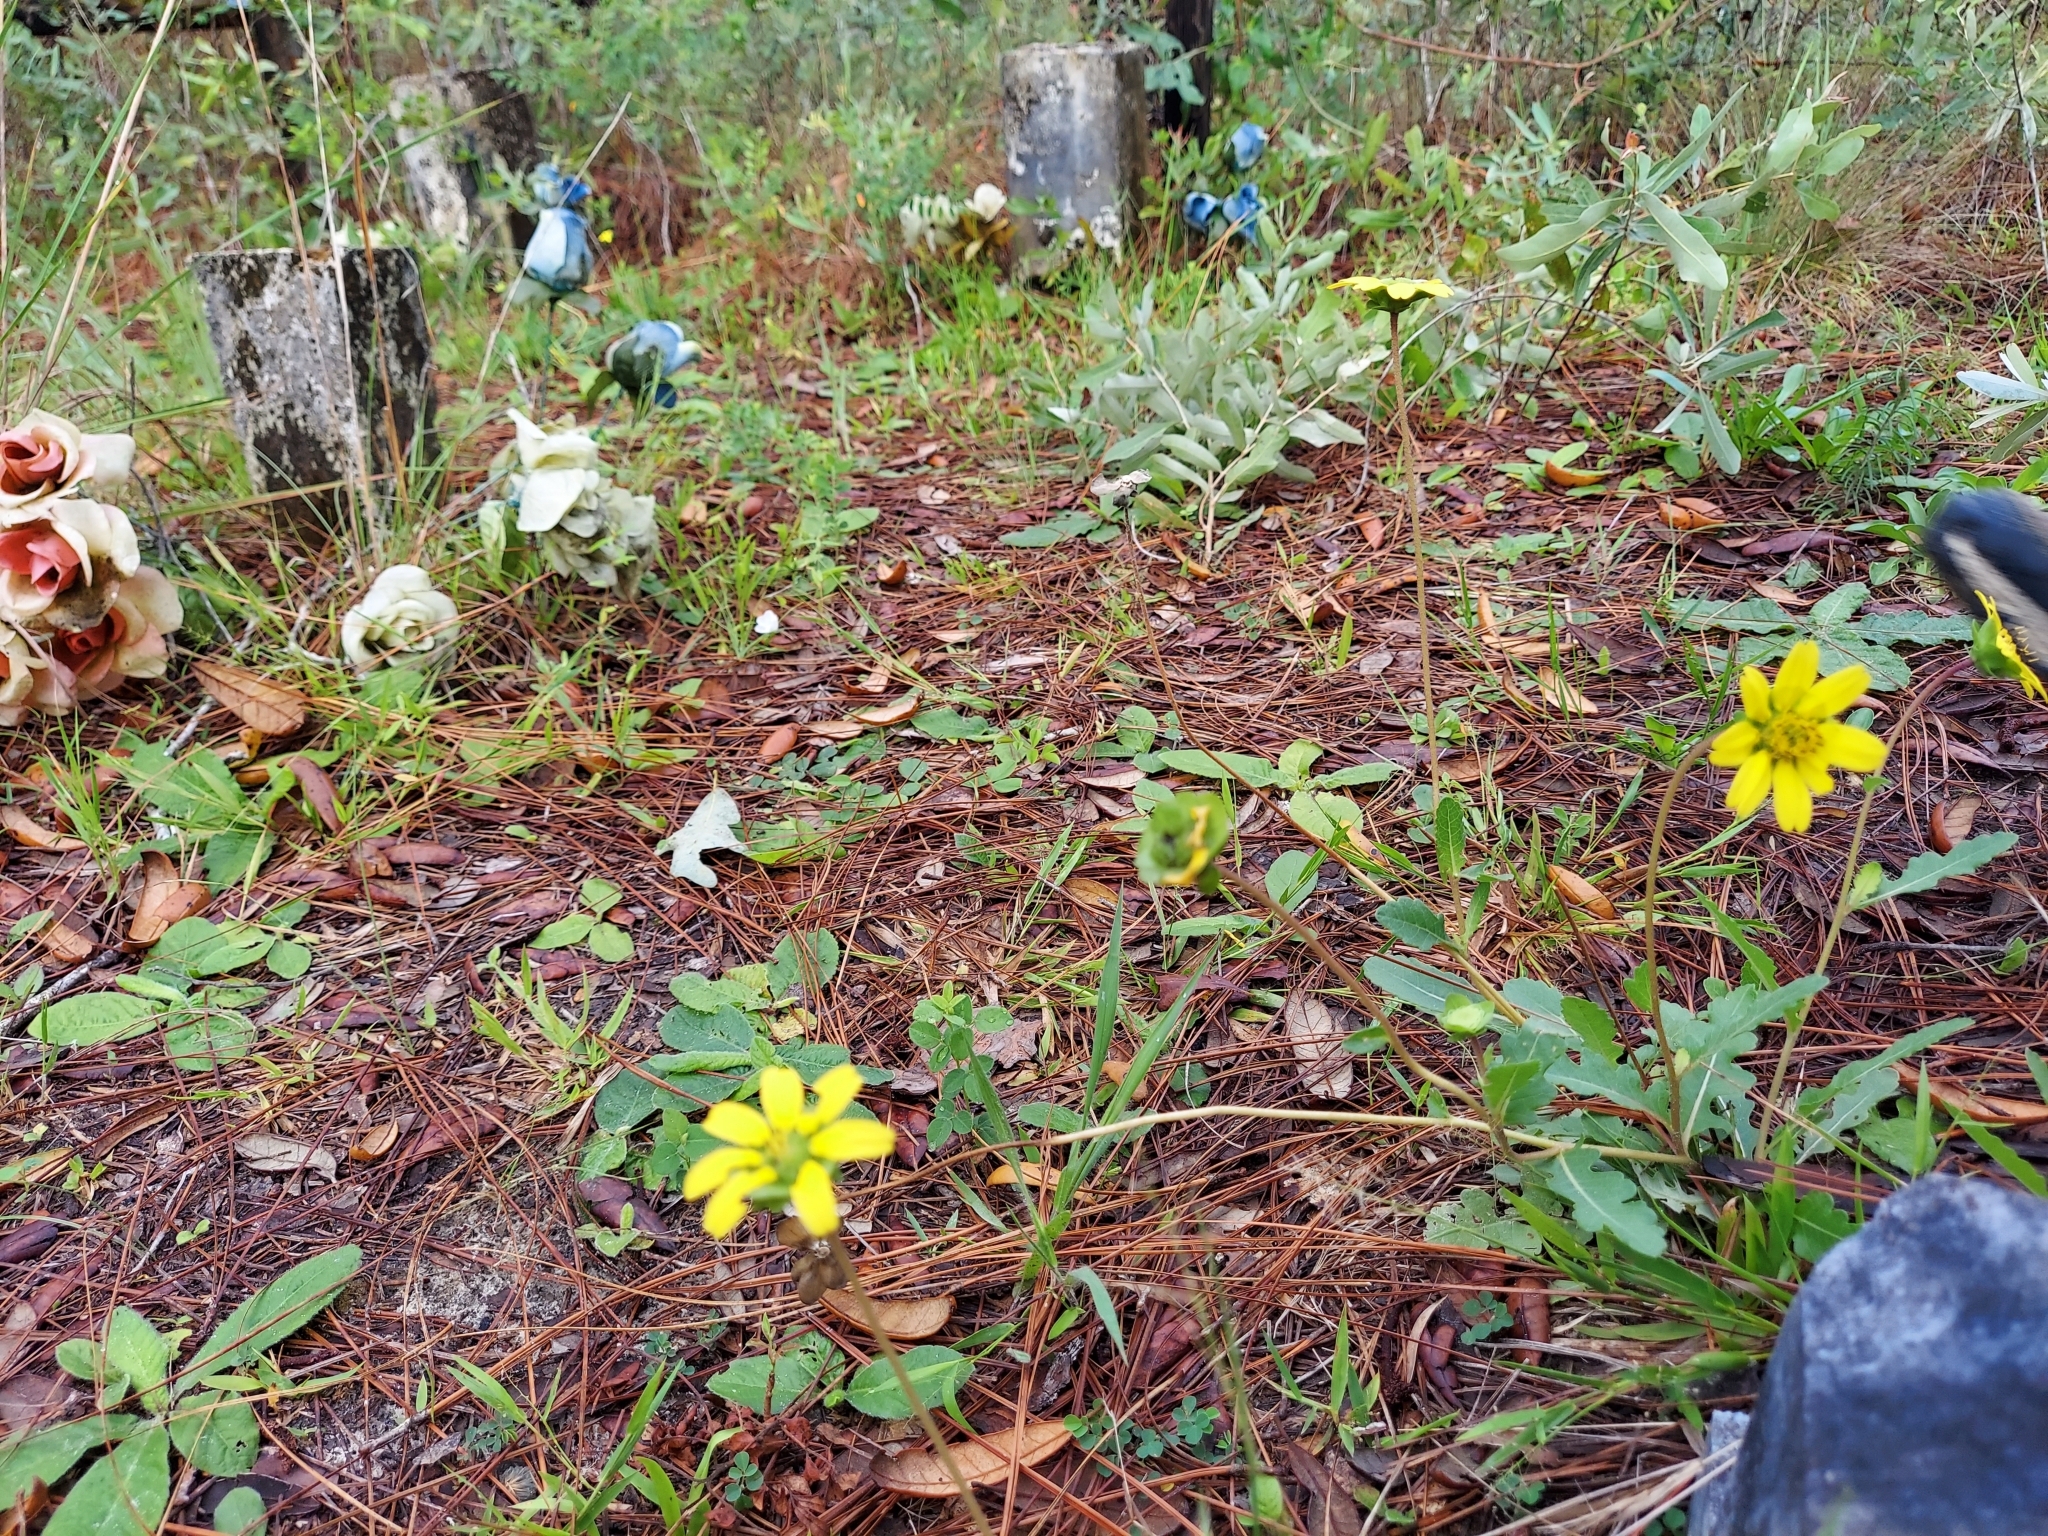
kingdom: Plantae
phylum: Tracheophyta
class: Magnoliopsida
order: Asterales
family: Asteraceae
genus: Phoebanthus
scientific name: Phoebanthus grandiflora
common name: Florida false sunflower
